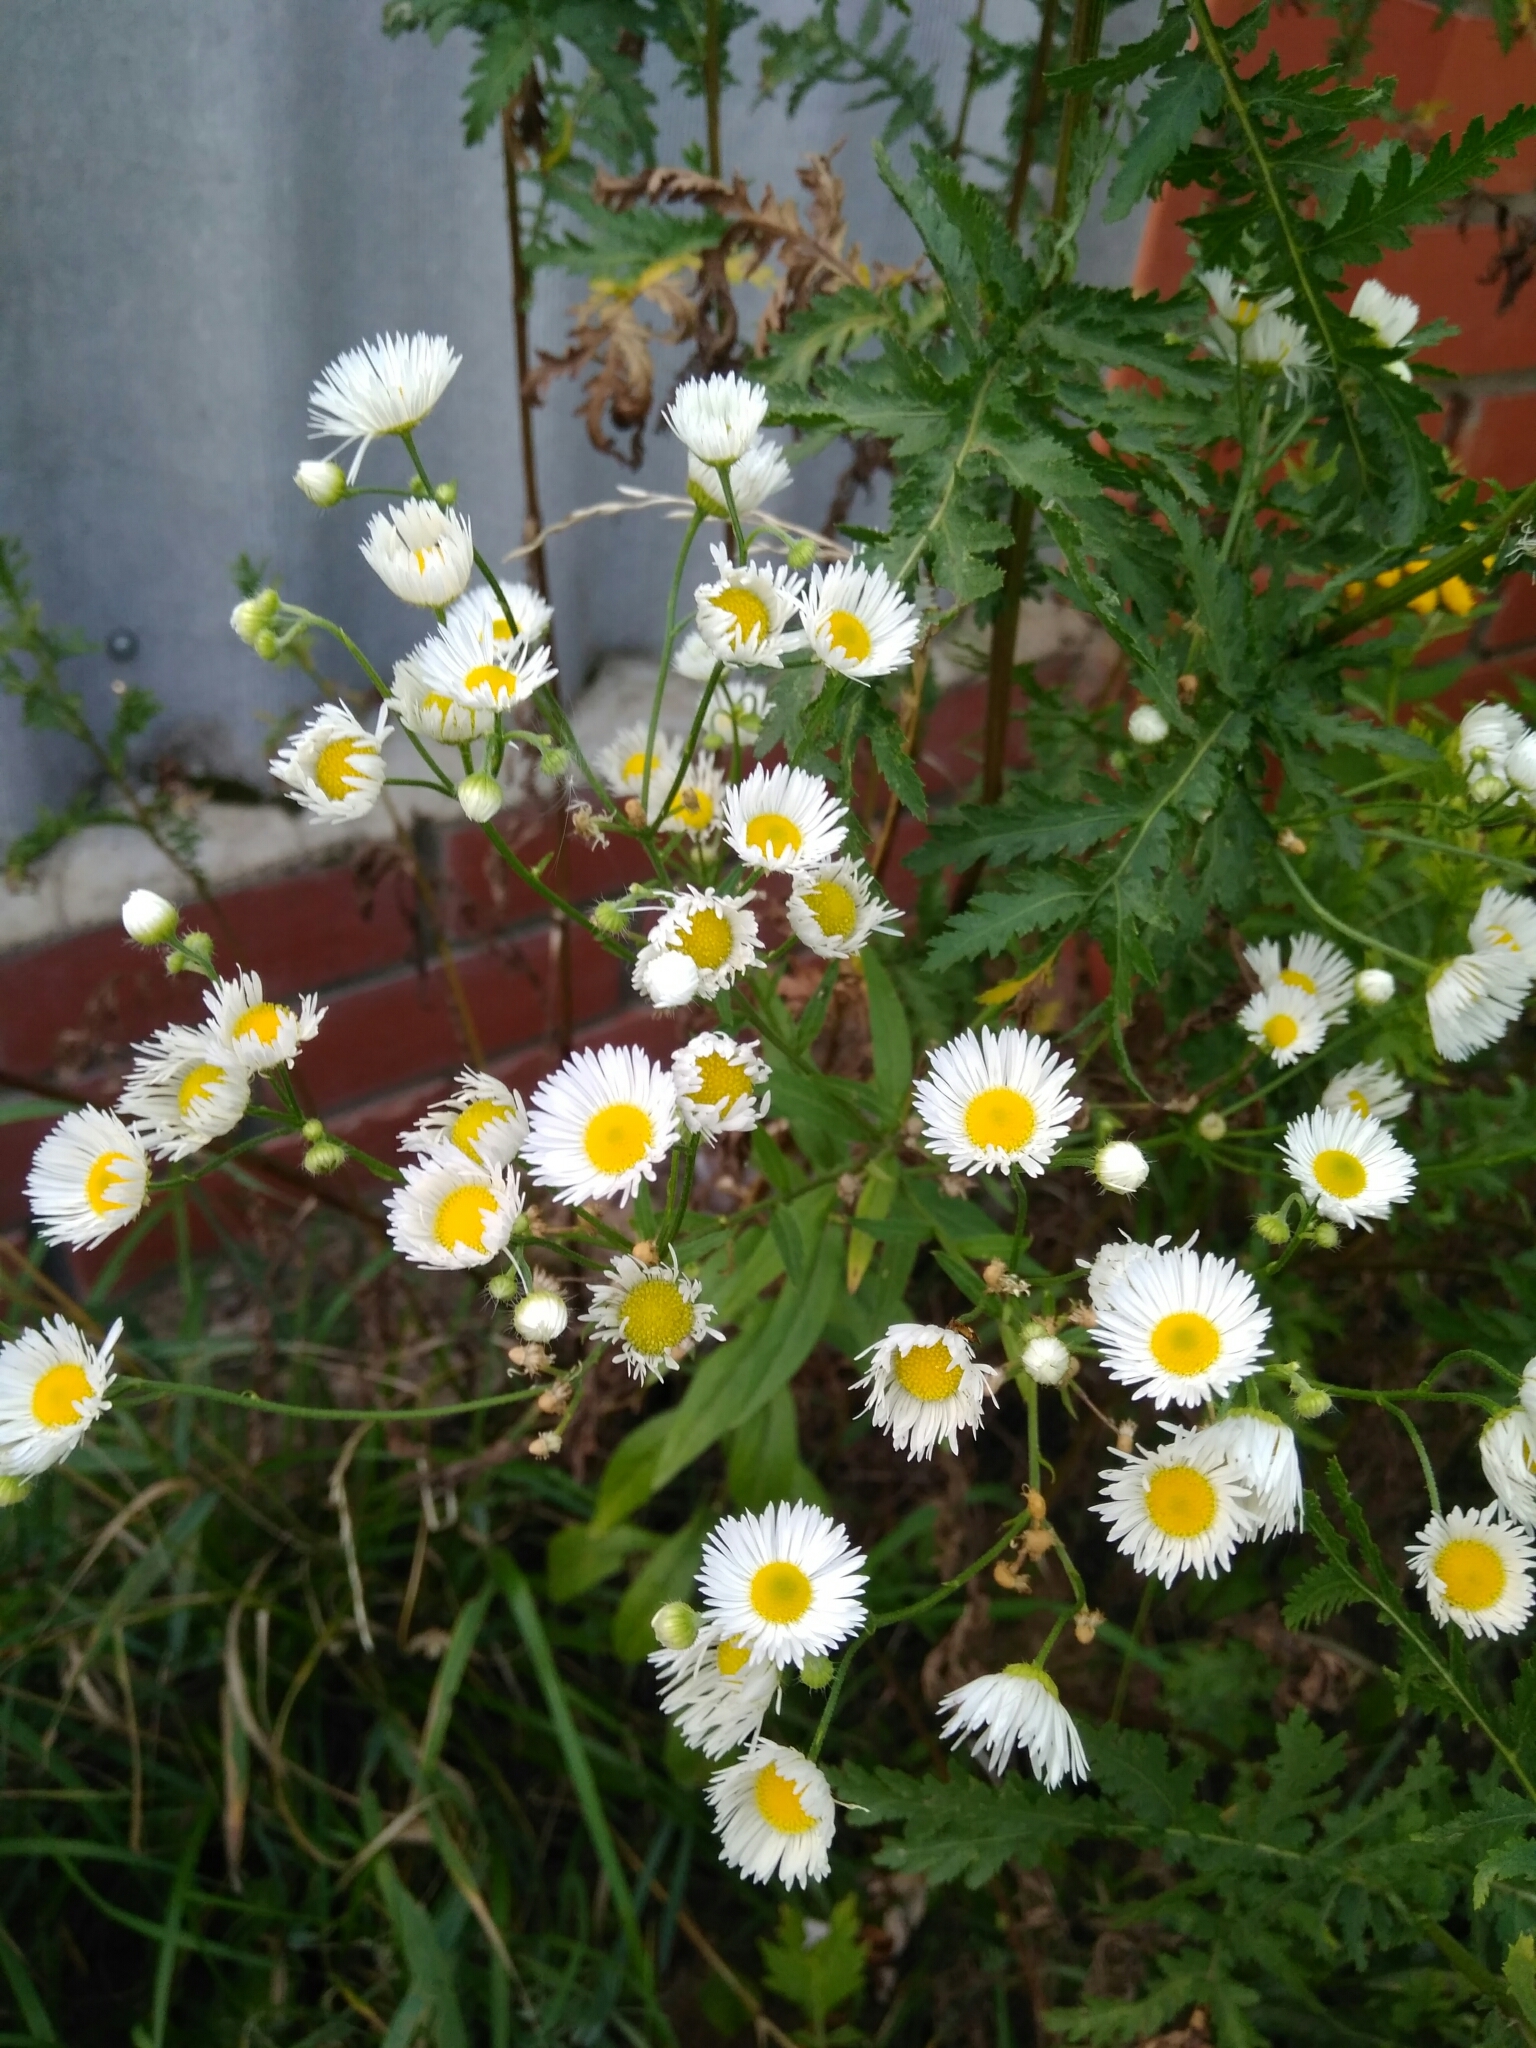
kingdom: Plantae
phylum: Tracheophyta
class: Magnoliopsida
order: Asterales
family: Asteraceae
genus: Erigeron
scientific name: Erigeron annuus
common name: Tall fleabane
